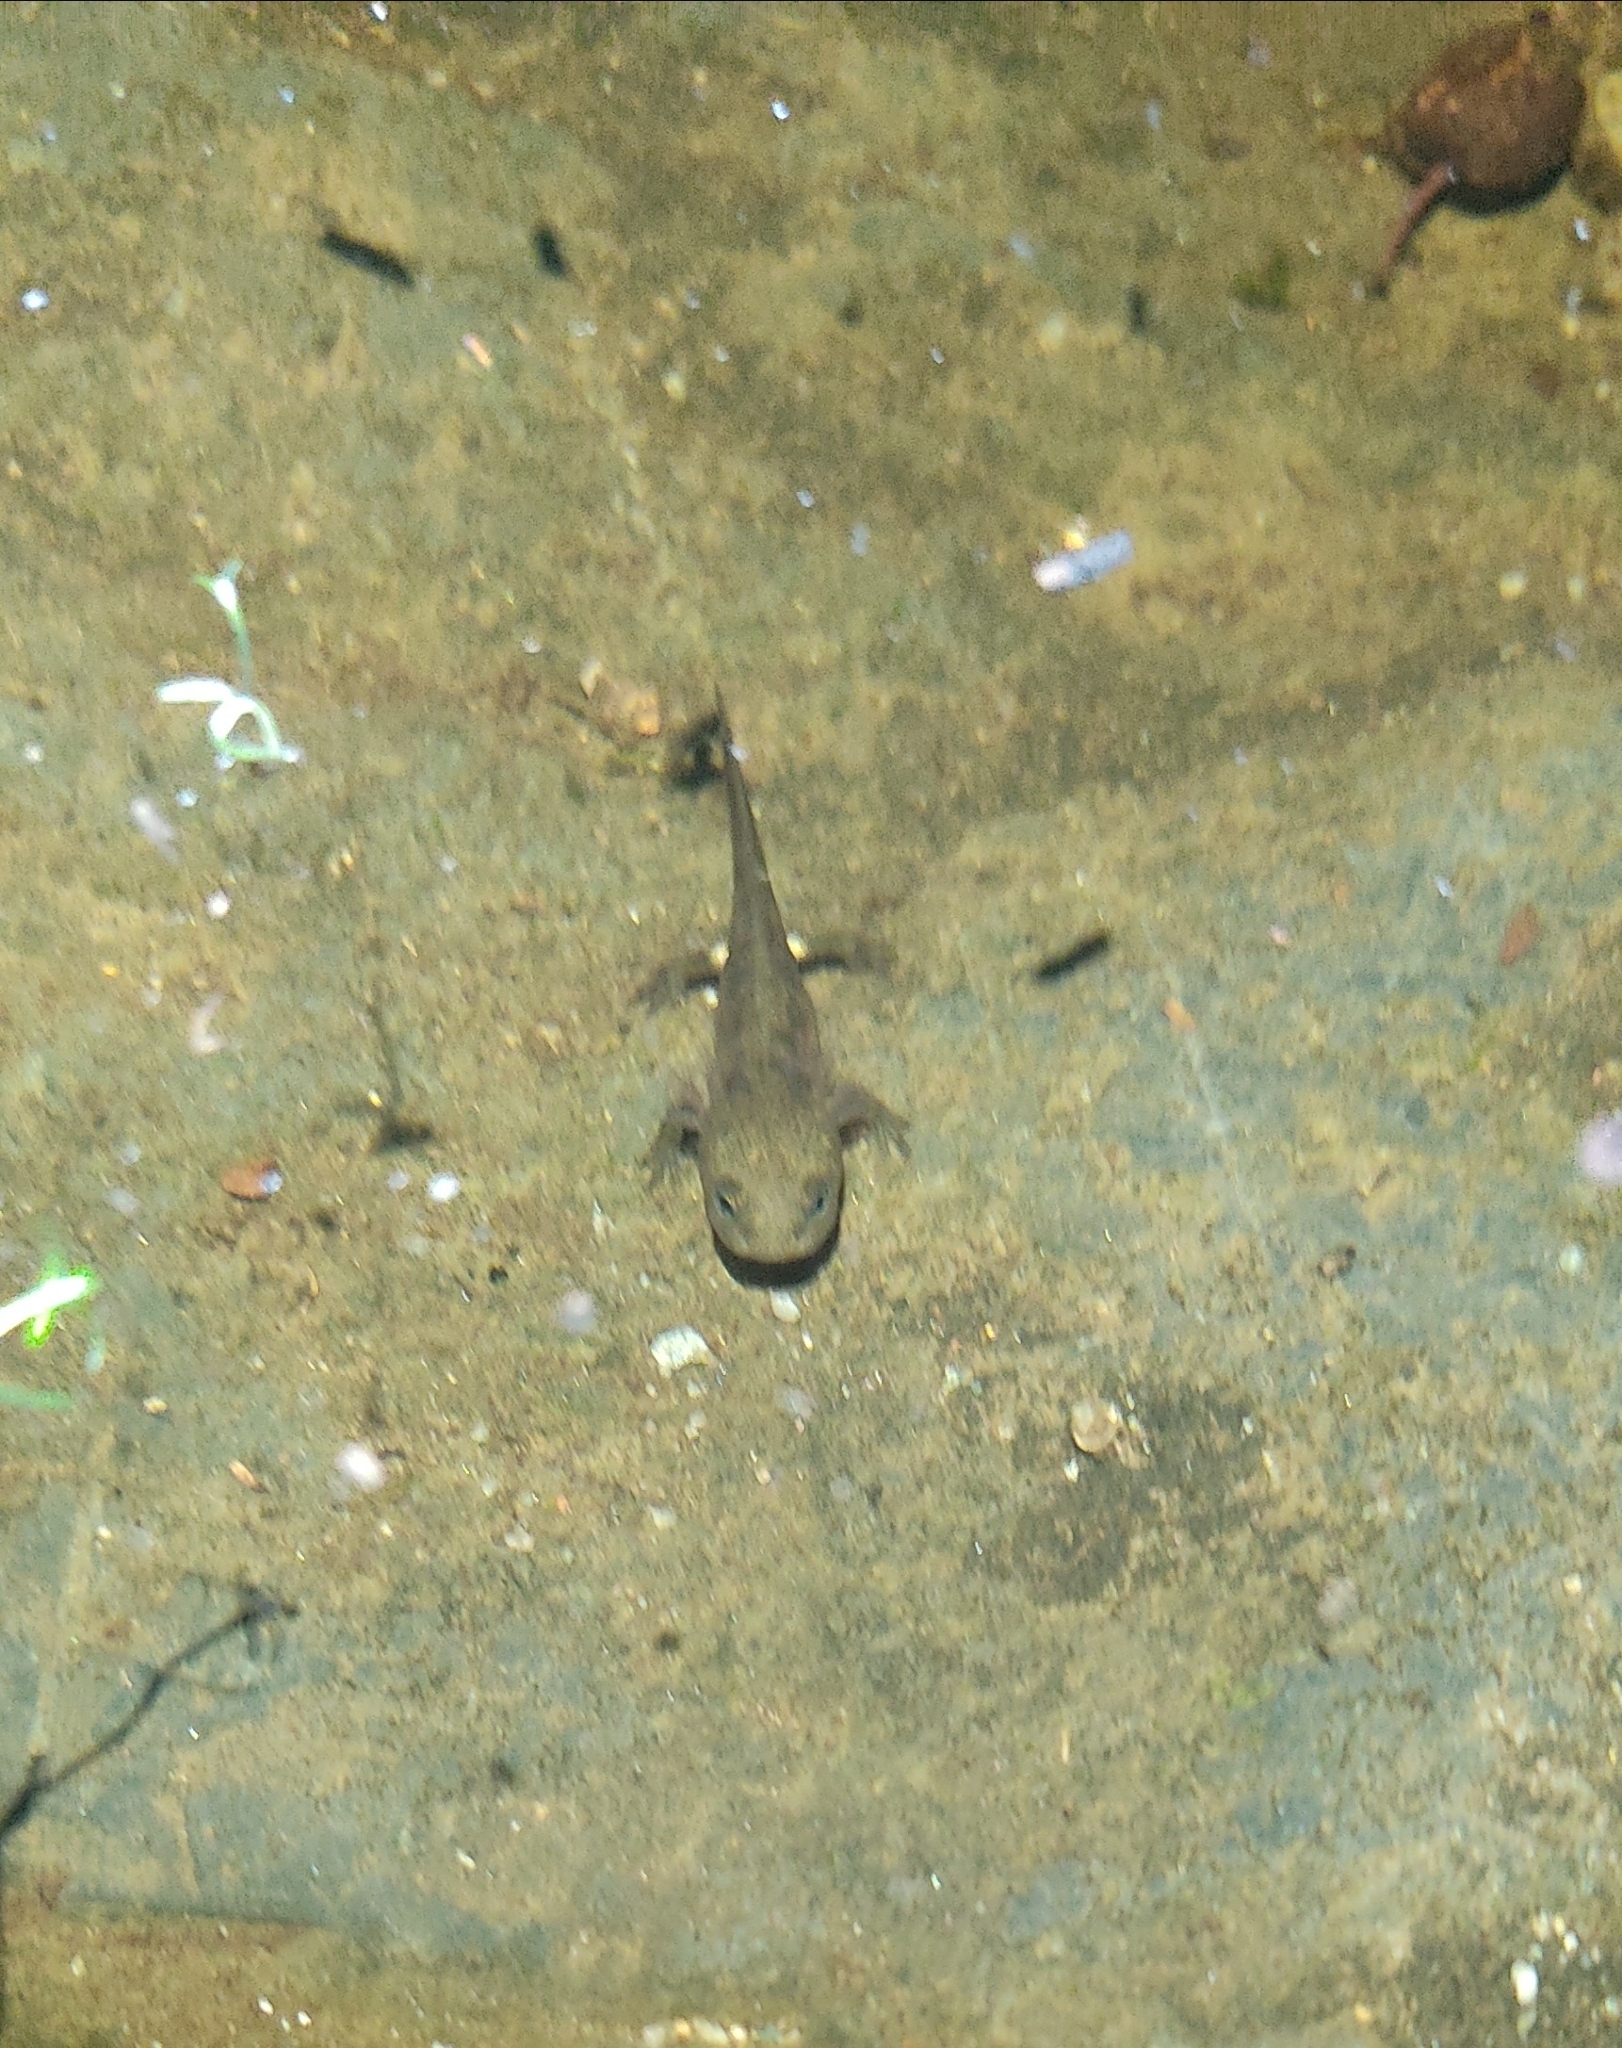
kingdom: Animalia
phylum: Chordata
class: Amphibia
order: Caudata
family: Salamandridae
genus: Salamandra
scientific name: Salamandra salamandra
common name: Fire salamander
